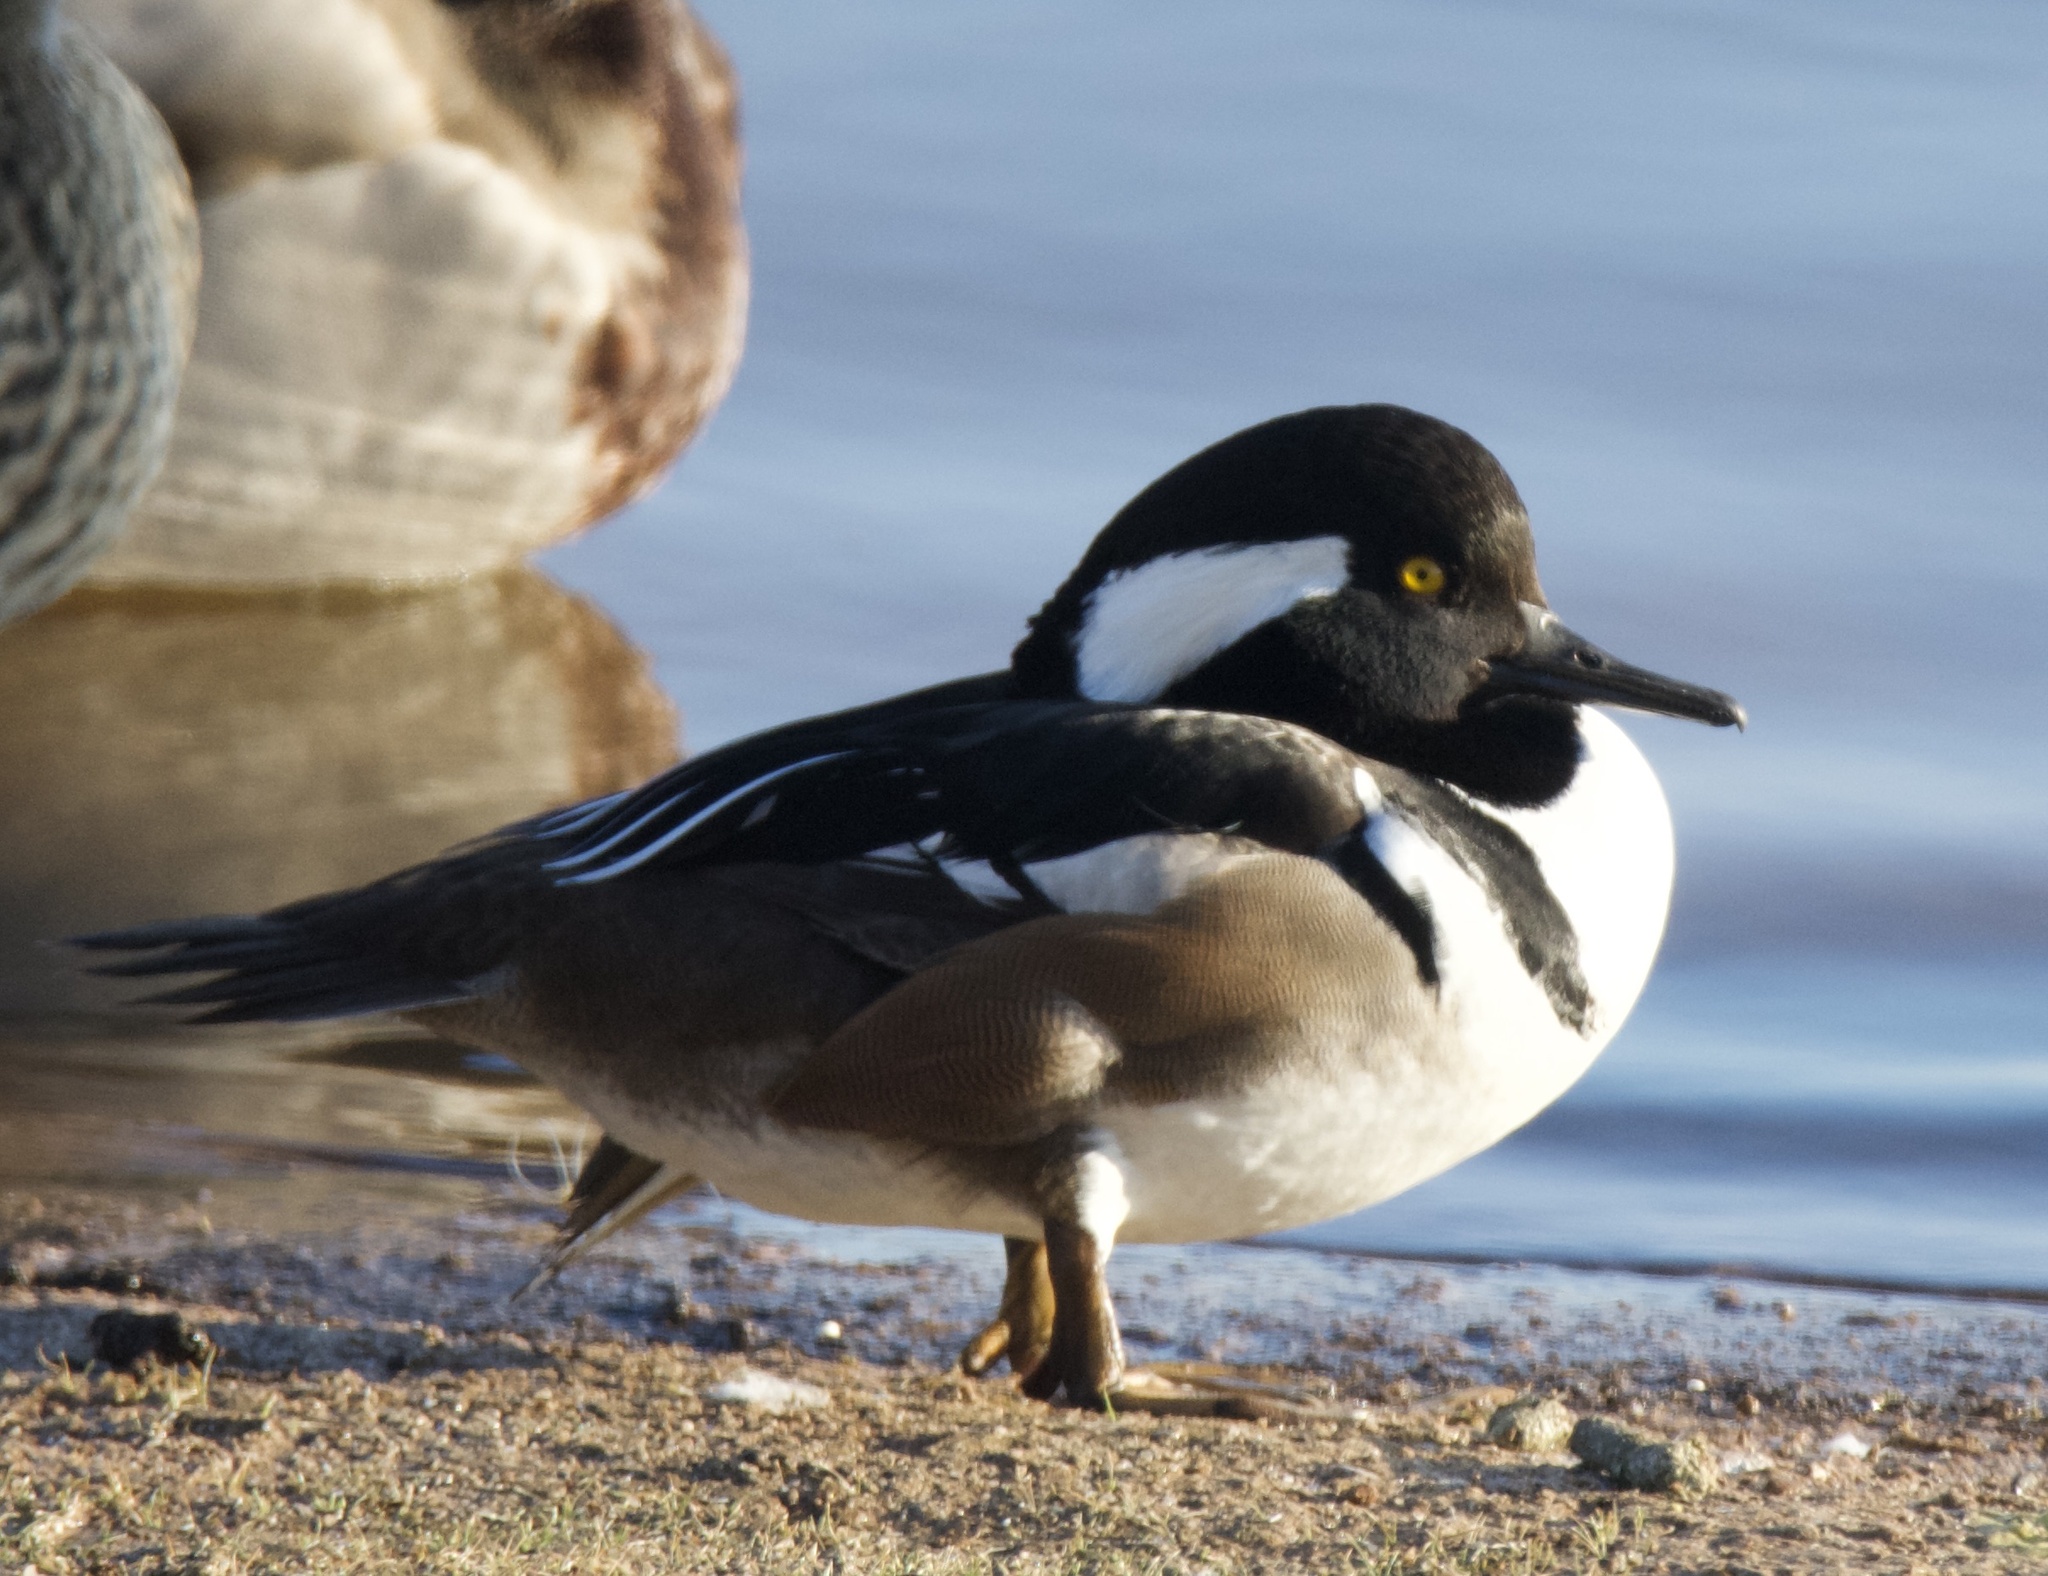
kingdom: Animalia
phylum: Chordata
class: Aves
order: Anseriformes
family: Anatidae
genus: Lophodytes
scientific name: Lophodytes cucullatus
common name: Hooded merganser
